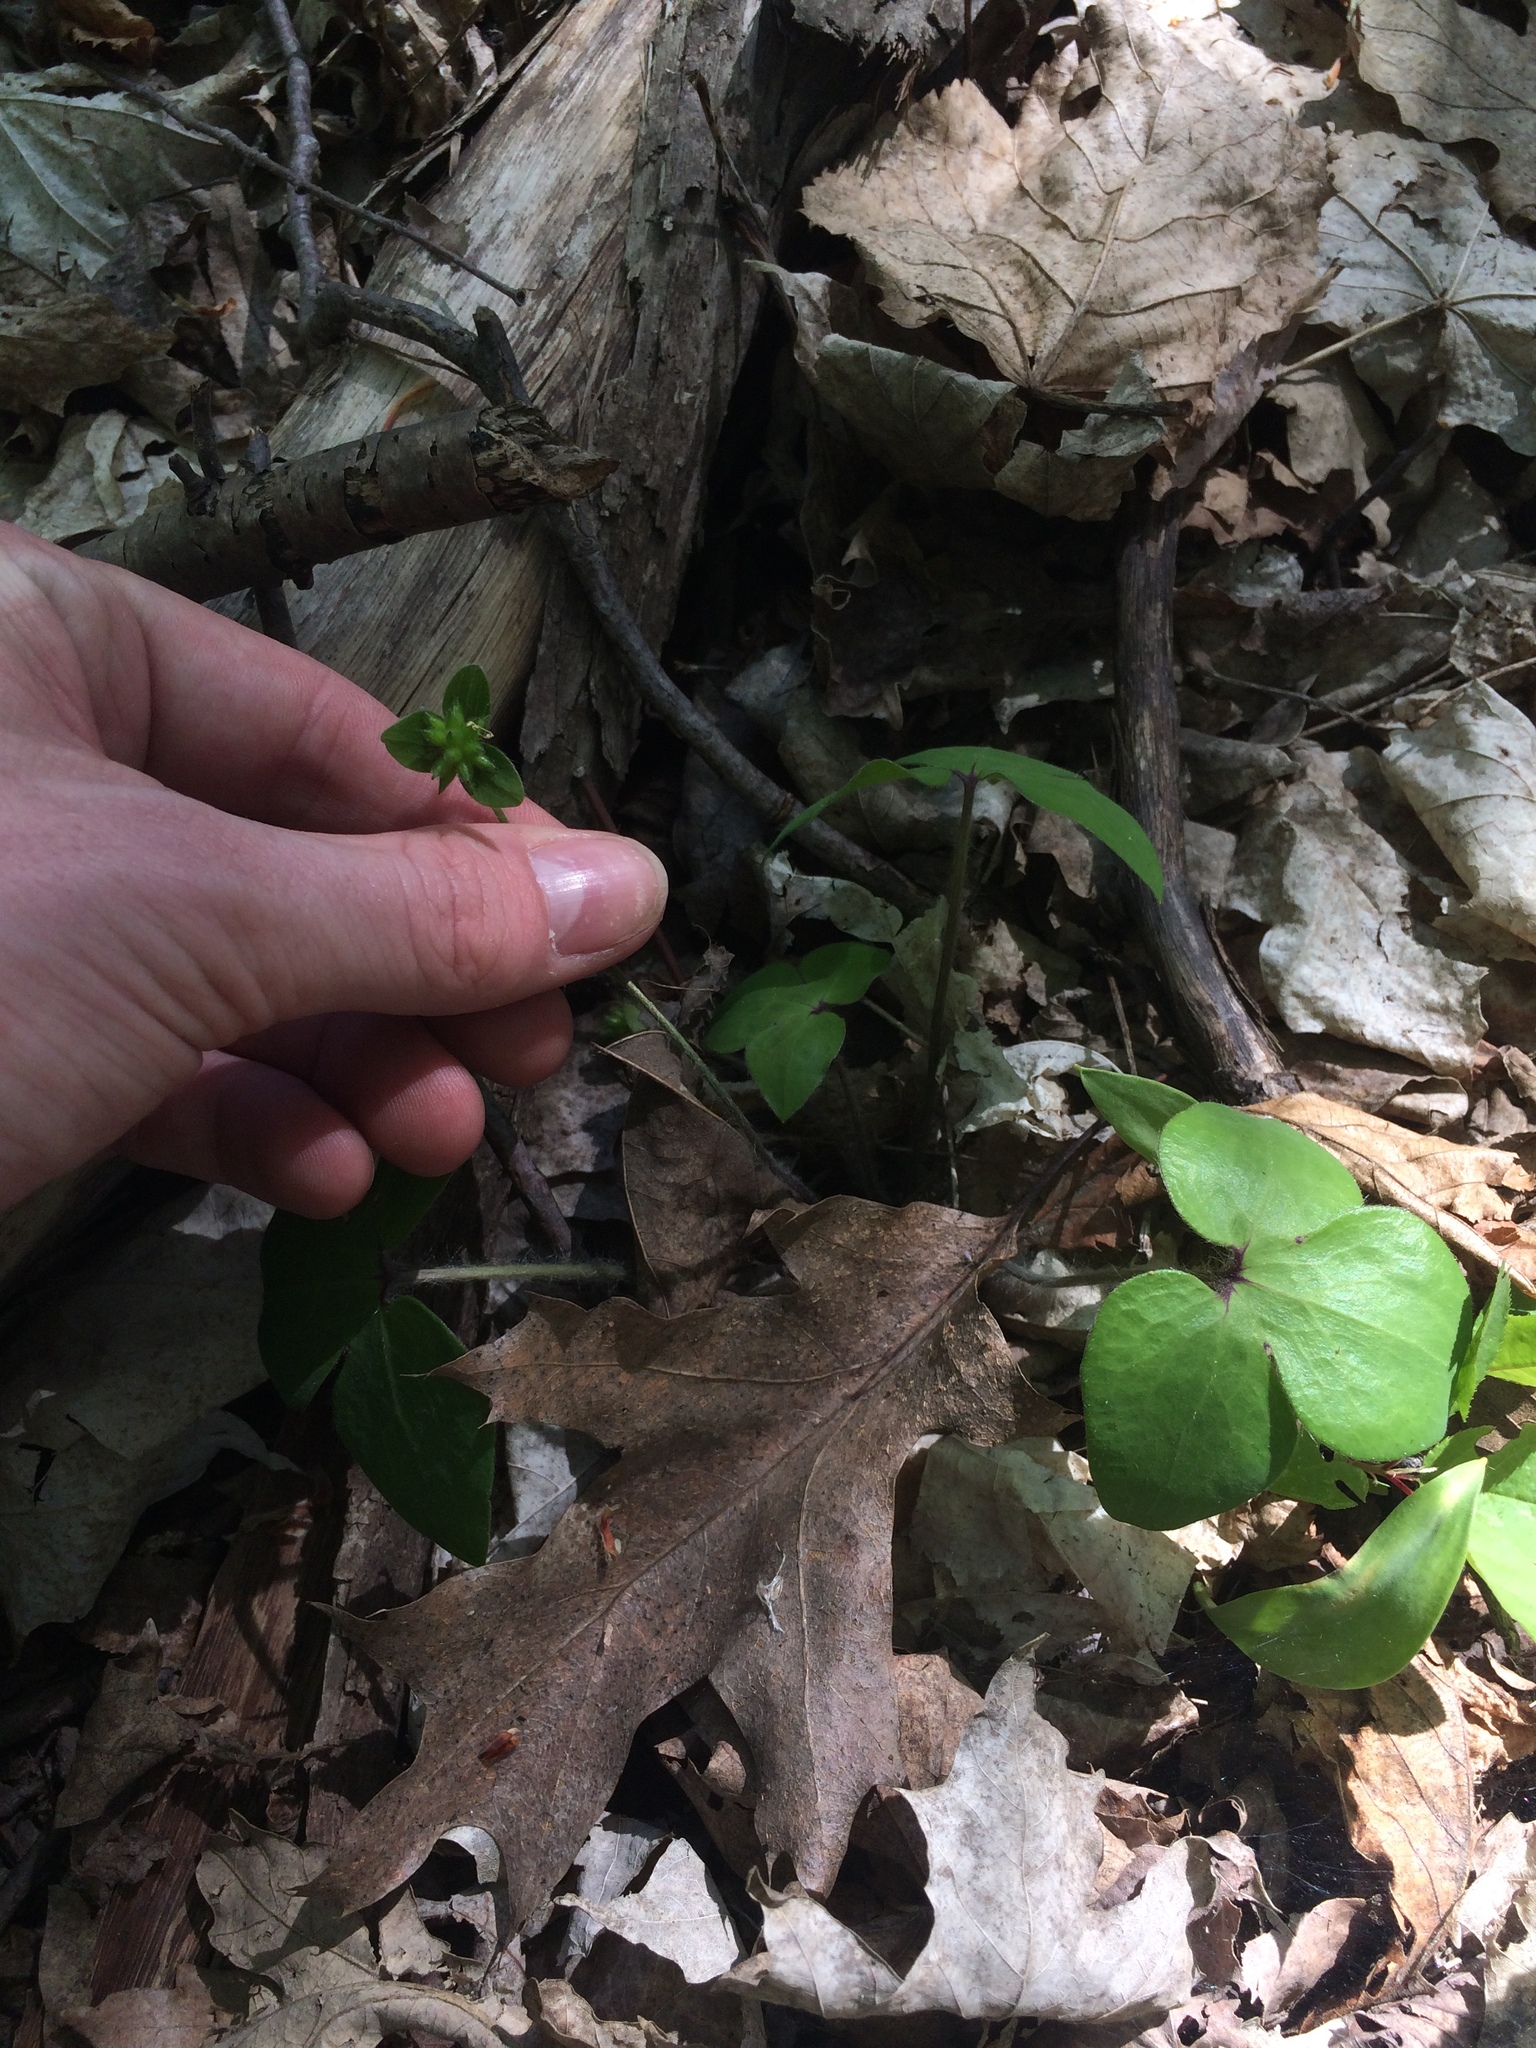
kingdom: Plantae
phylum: Tracheophyta
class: Magnoliopsida
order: Ranunculales
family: Ranunculaceae
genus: Hepatica
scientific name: Hepatica acutiloba
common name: Sharp-lobed hepatica
